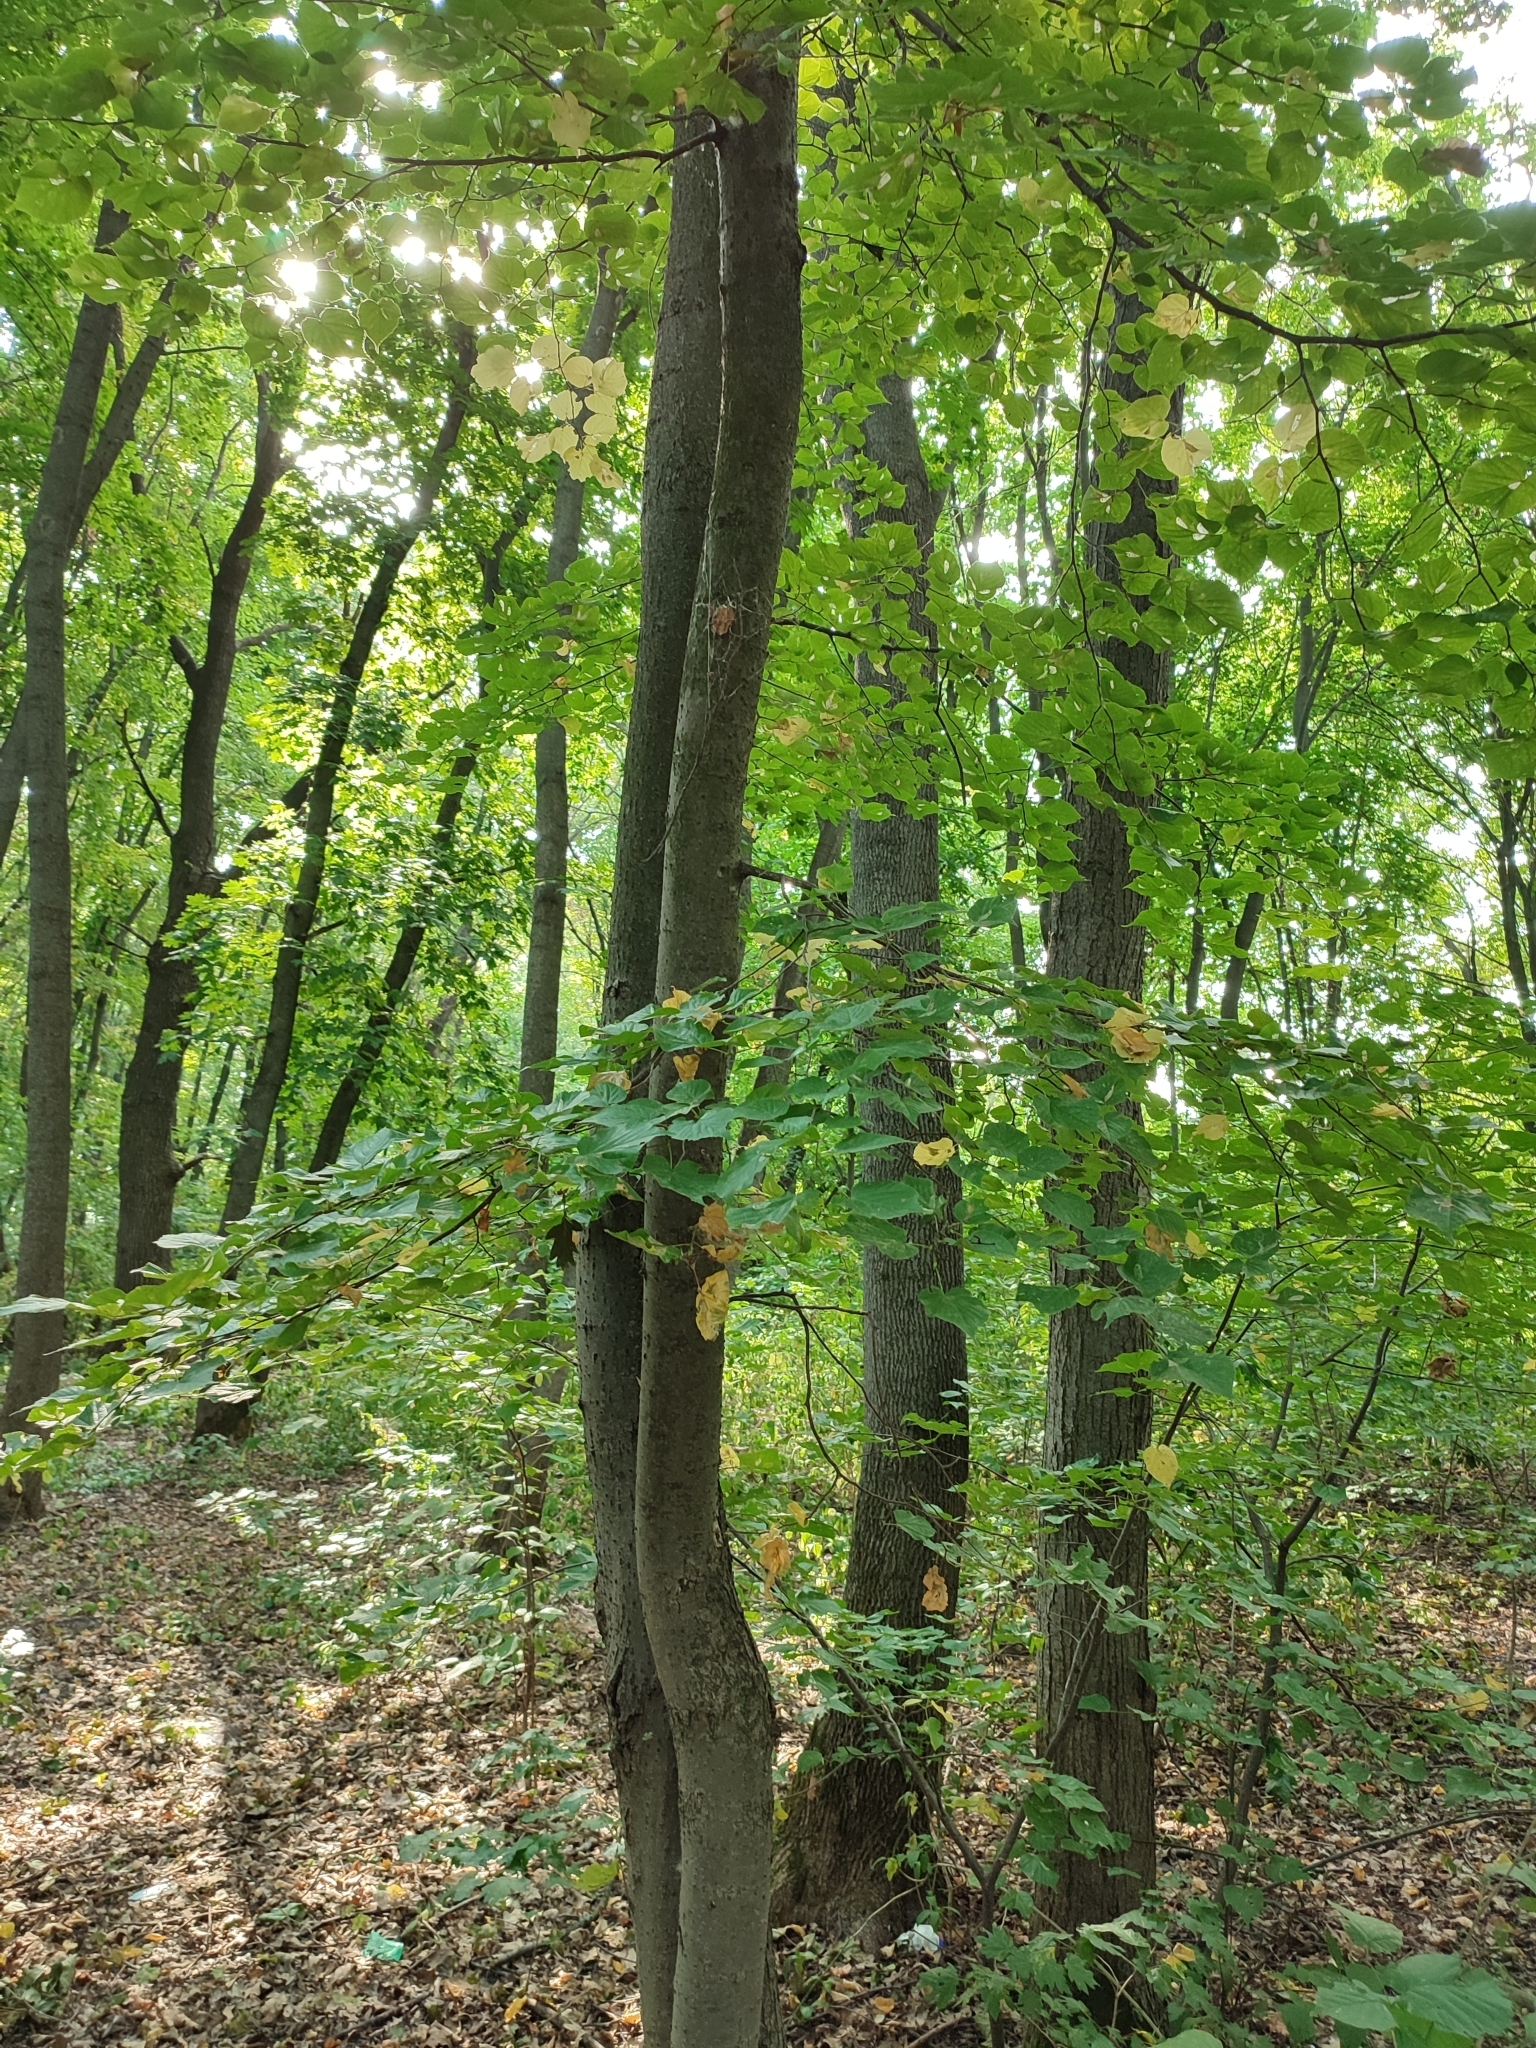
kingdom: Plantae
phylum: Tracheophyta
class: Magnoliopsida
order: Malvales
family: Malvaceae
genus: Tilia
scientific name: Tilia cordata
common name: Small-leaved lime
